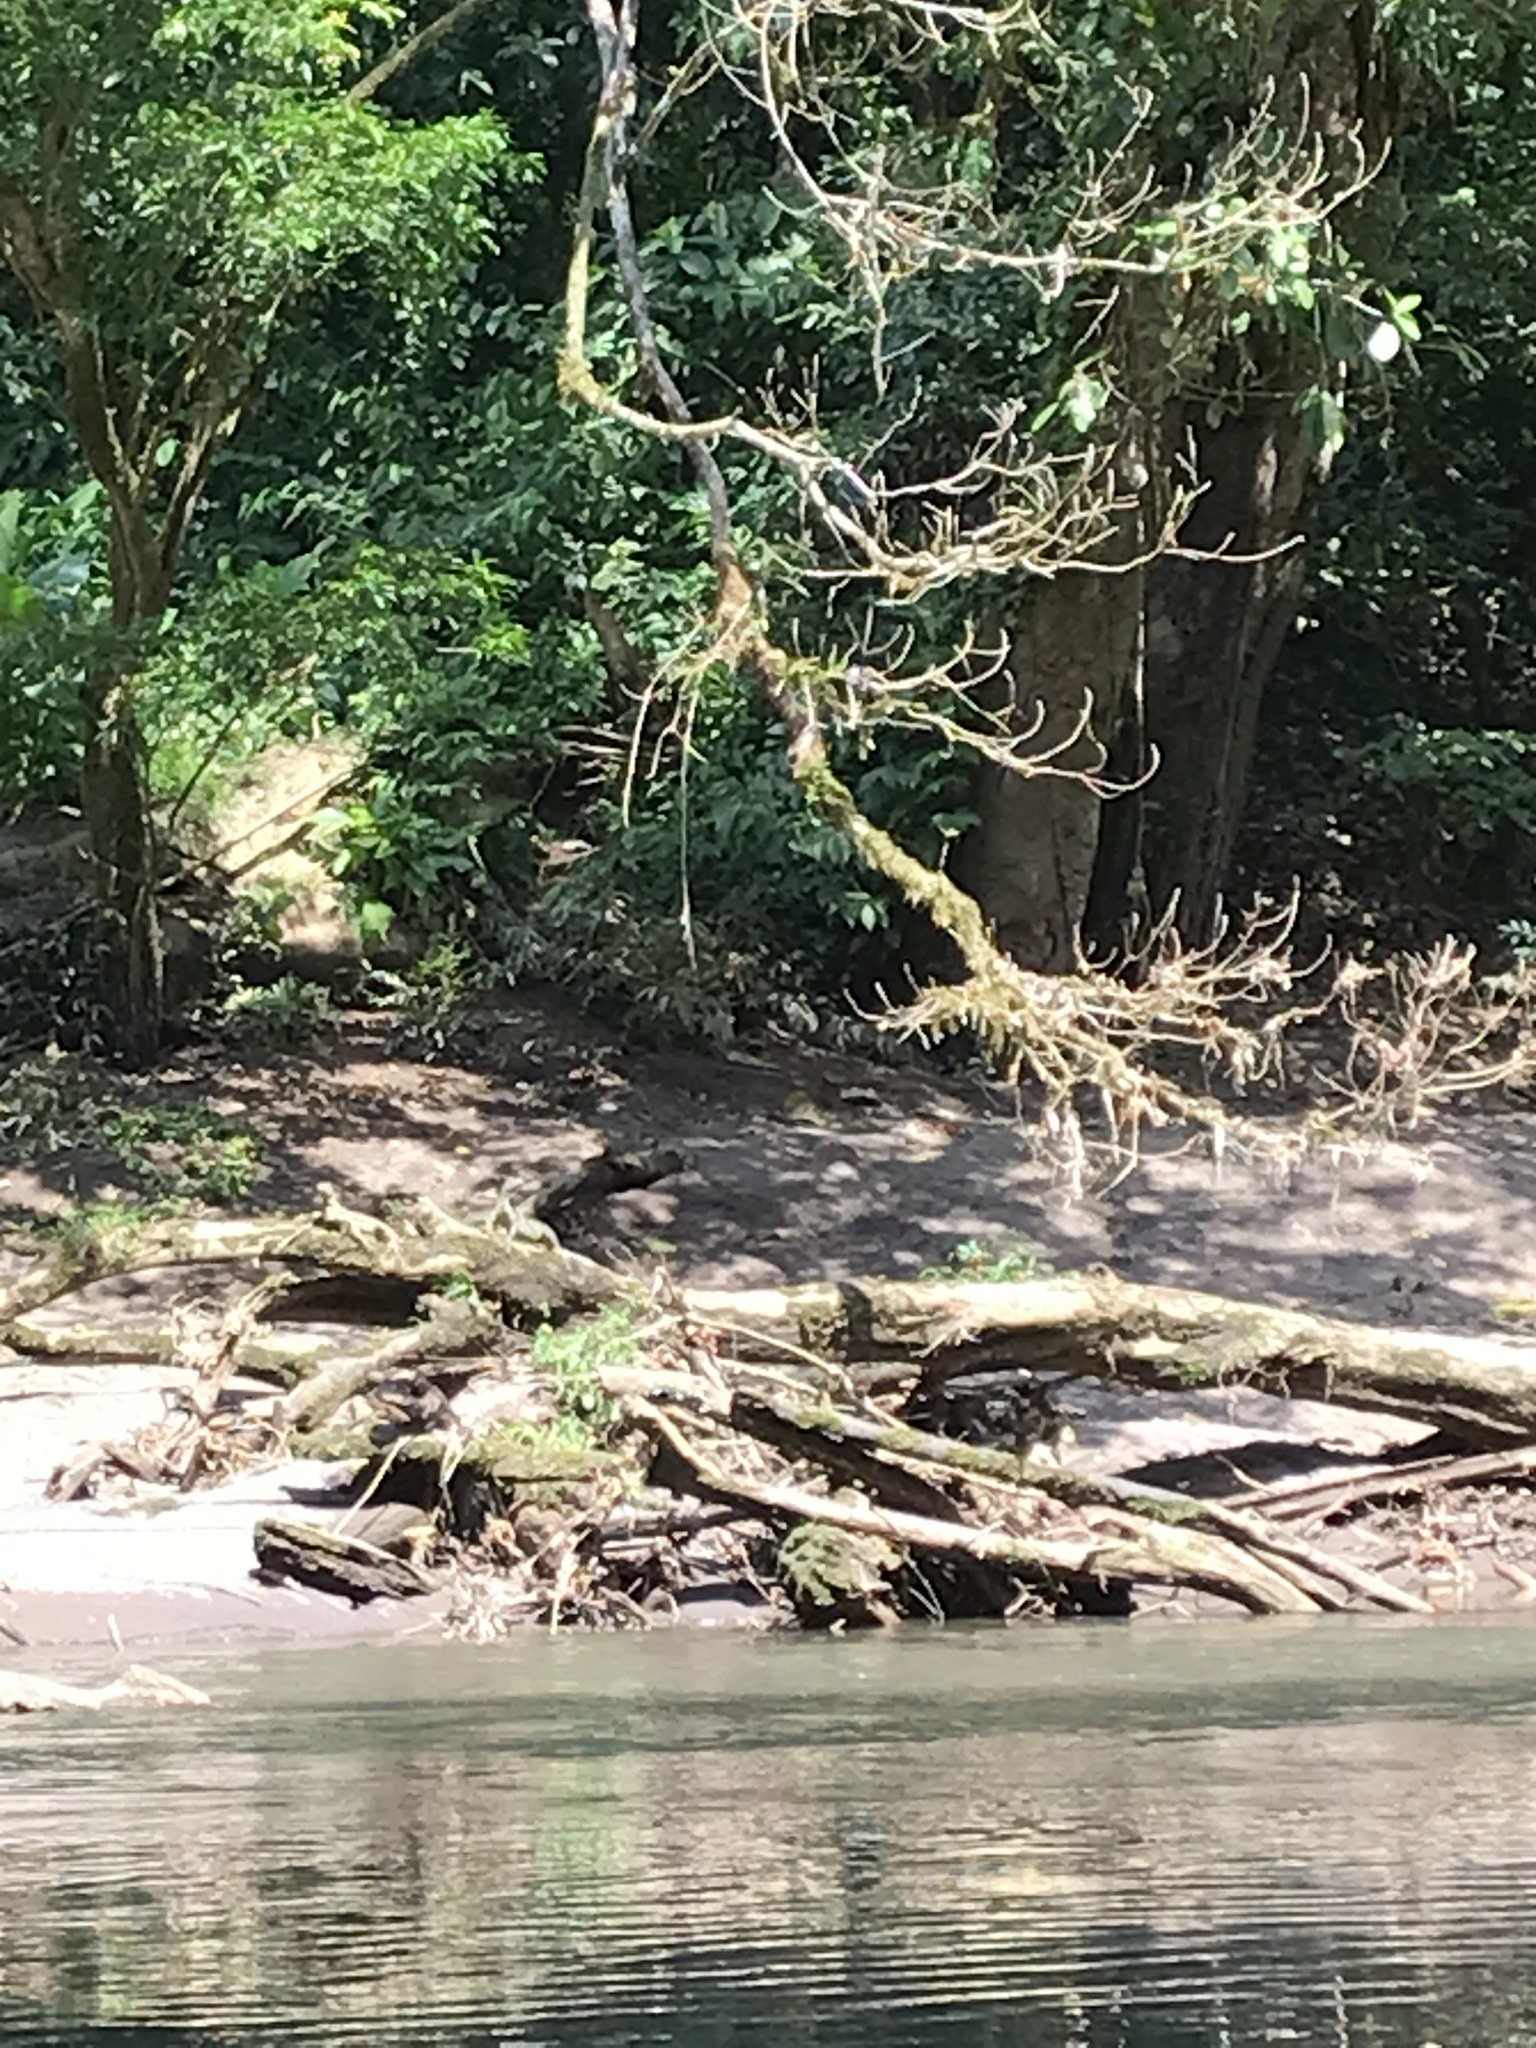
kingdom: Animalia
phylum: Chordata
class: Squamata
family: Iguanidae
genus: Iguana
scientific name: Iguana iguana
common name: Green iguana
